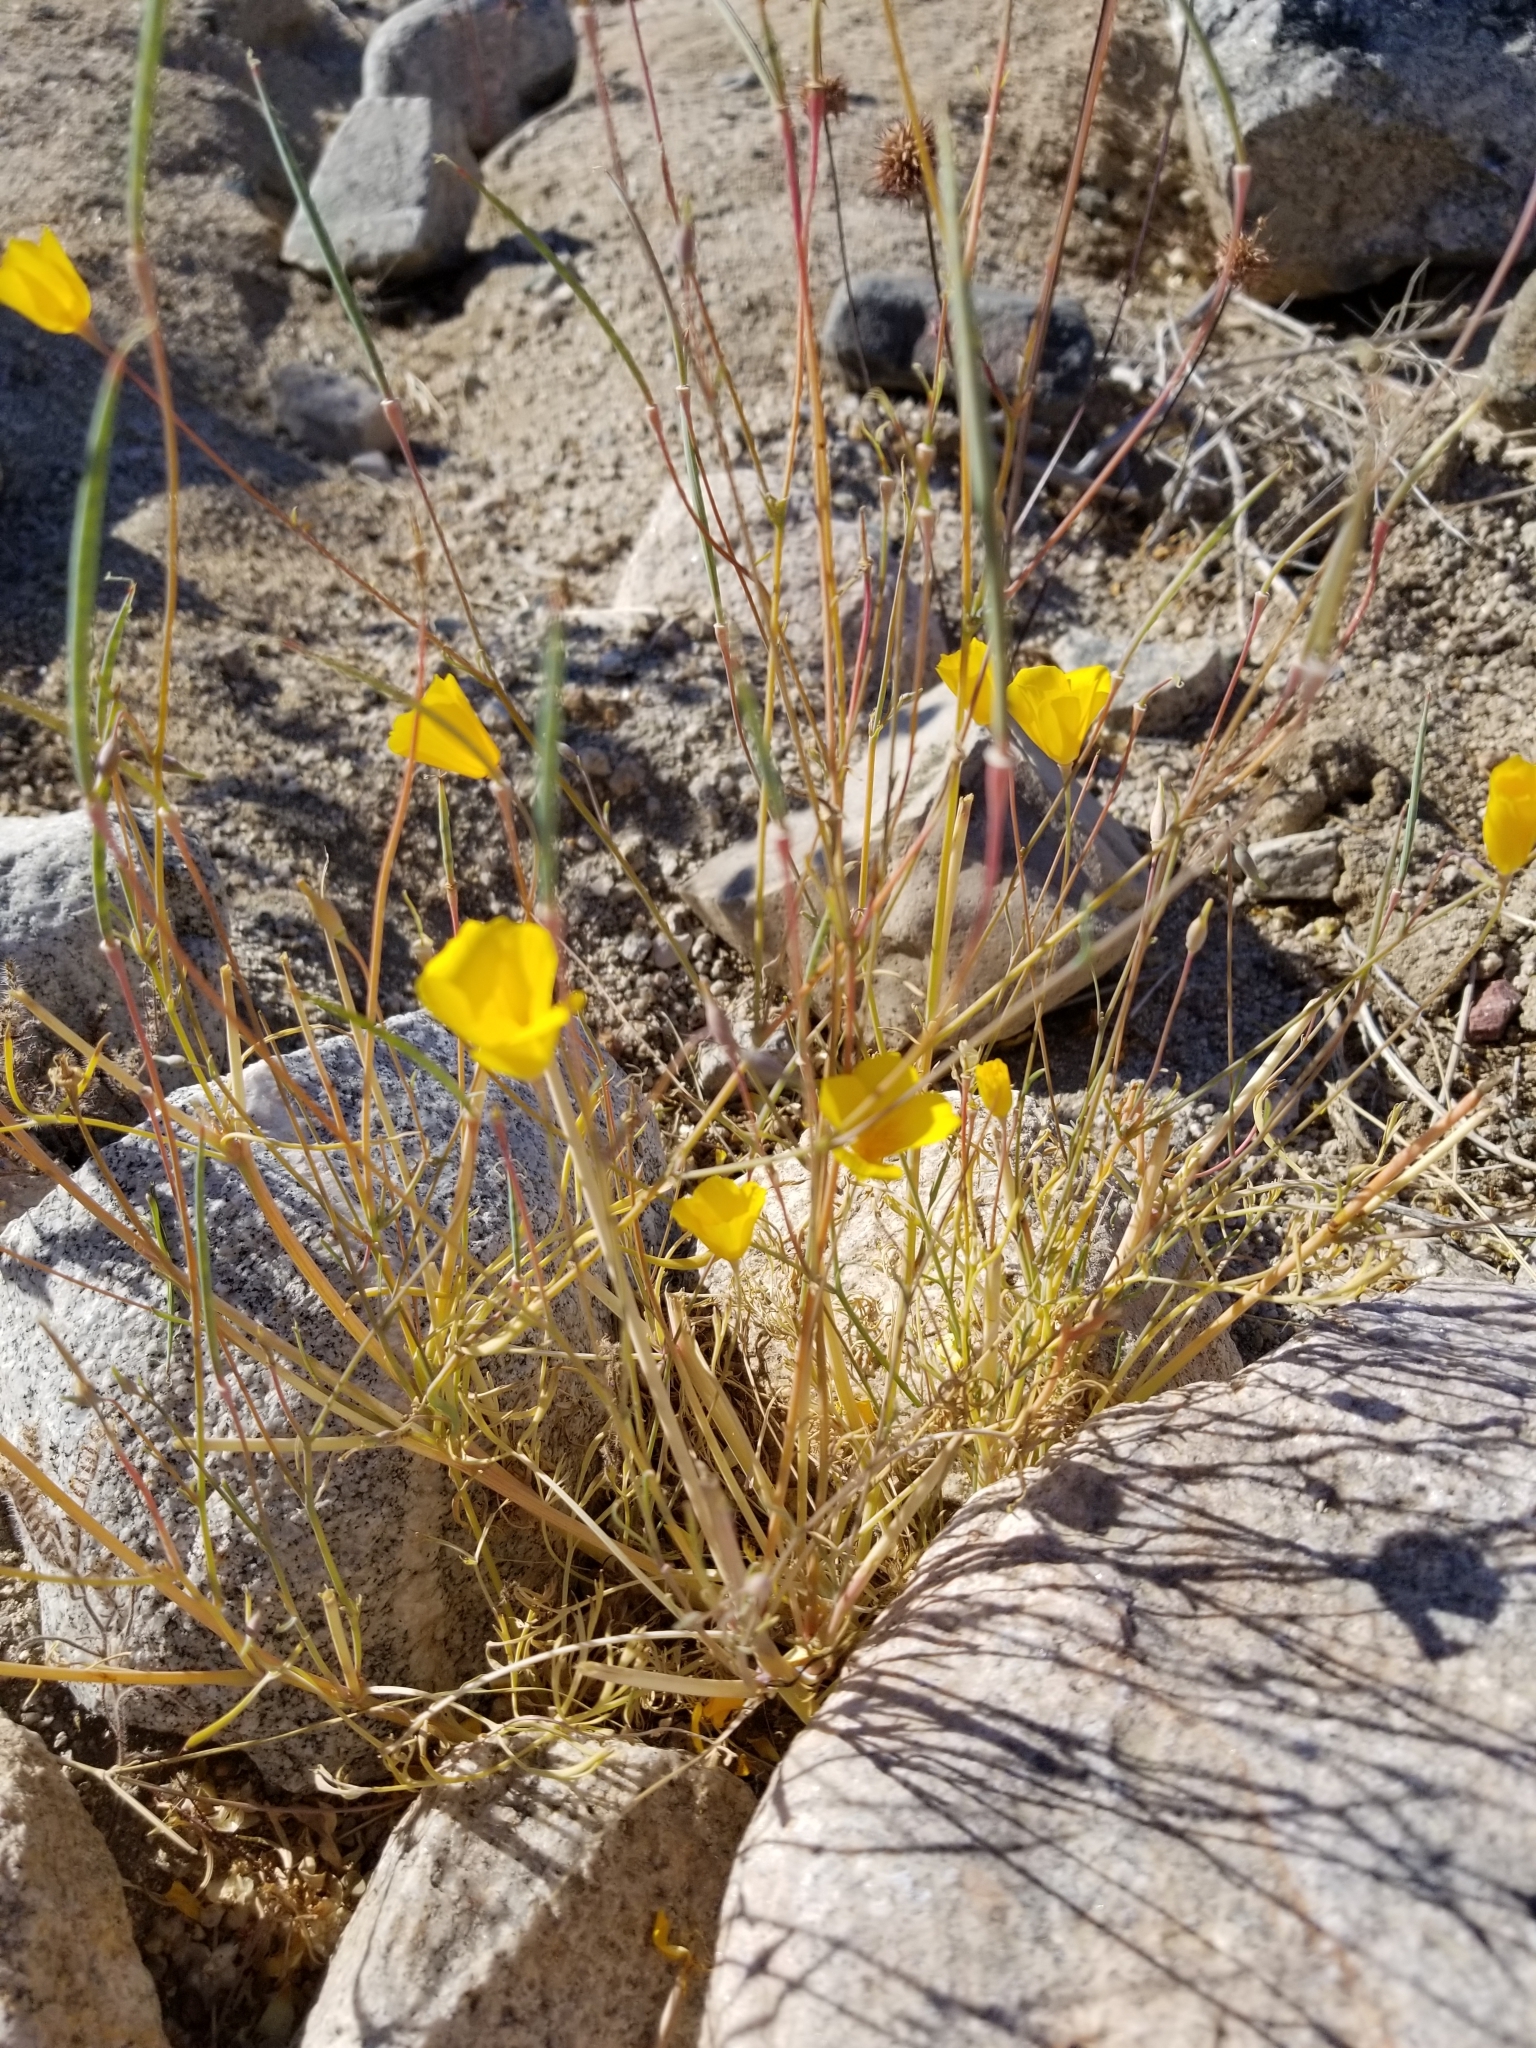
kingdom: Plantae
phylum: Tracheophyta
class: Magnoliopsida
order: Ranunculales
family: Papaveraceae
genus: Eschscholzia
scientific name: Eschscholzia parishii
